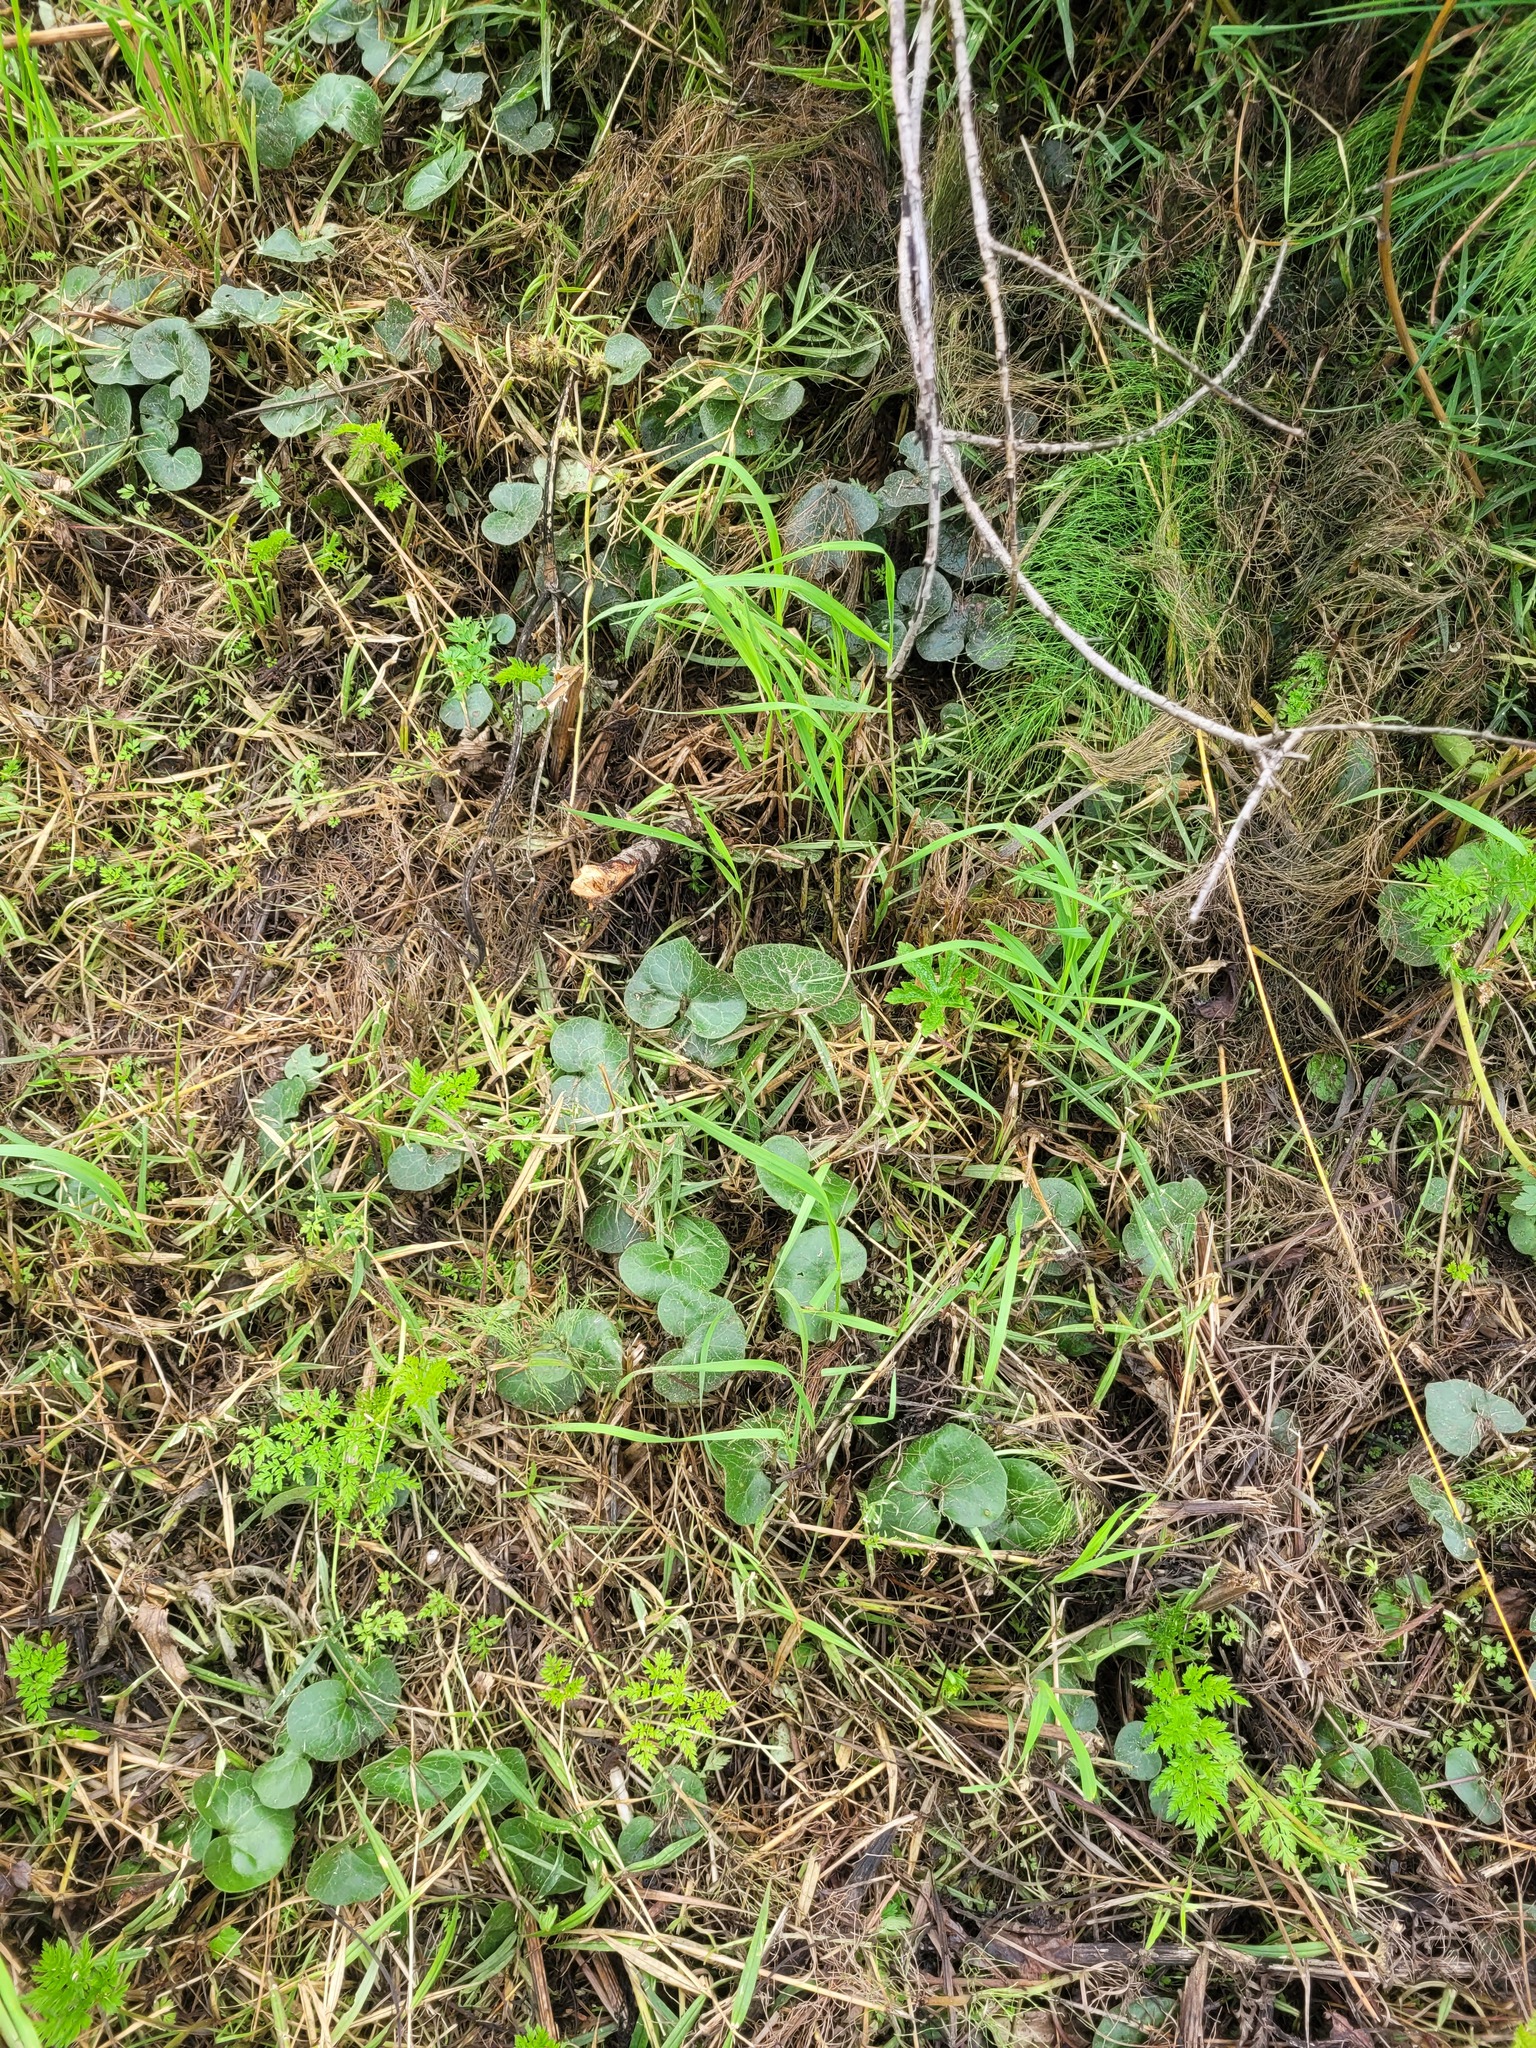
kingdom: Plantae
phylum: Tracheophyta
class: Magnoliopsida
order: Piperales
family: Aristolochiaceae
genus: Asarum
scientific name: Asarum europaeum
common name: Asarabacca
